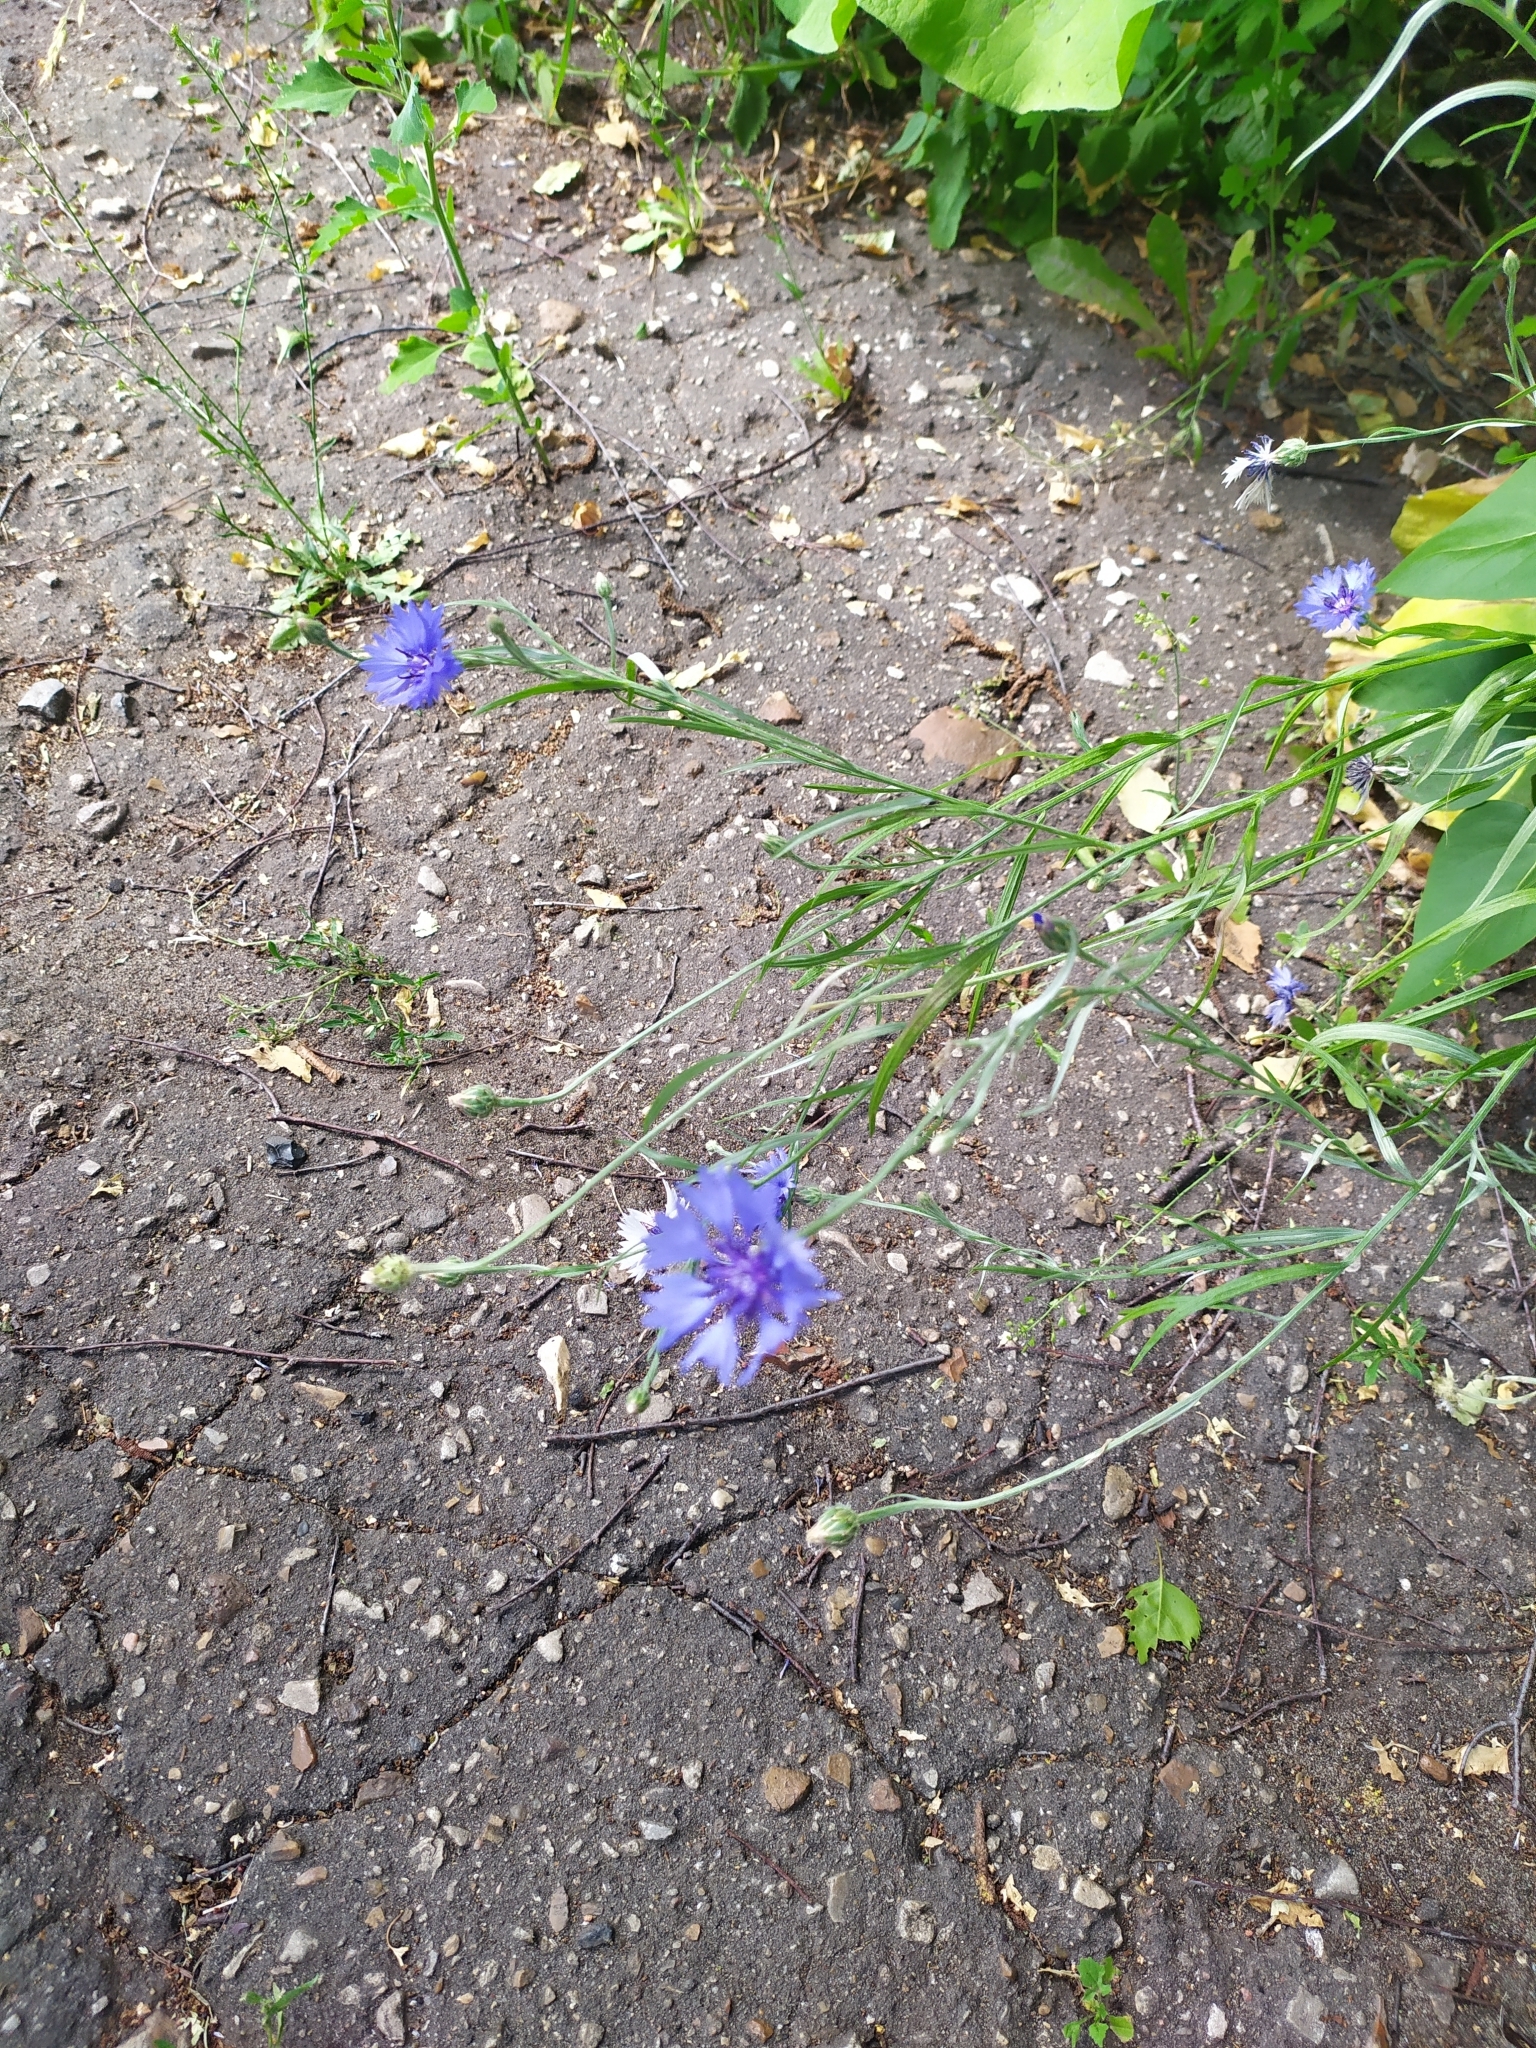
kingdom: Plantae
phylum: Tracheophyta
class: Magnoliopsida
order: Asterales
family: Asteraceae
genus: Centaurea
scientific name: Centaurea cyanus
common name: Cornflower
